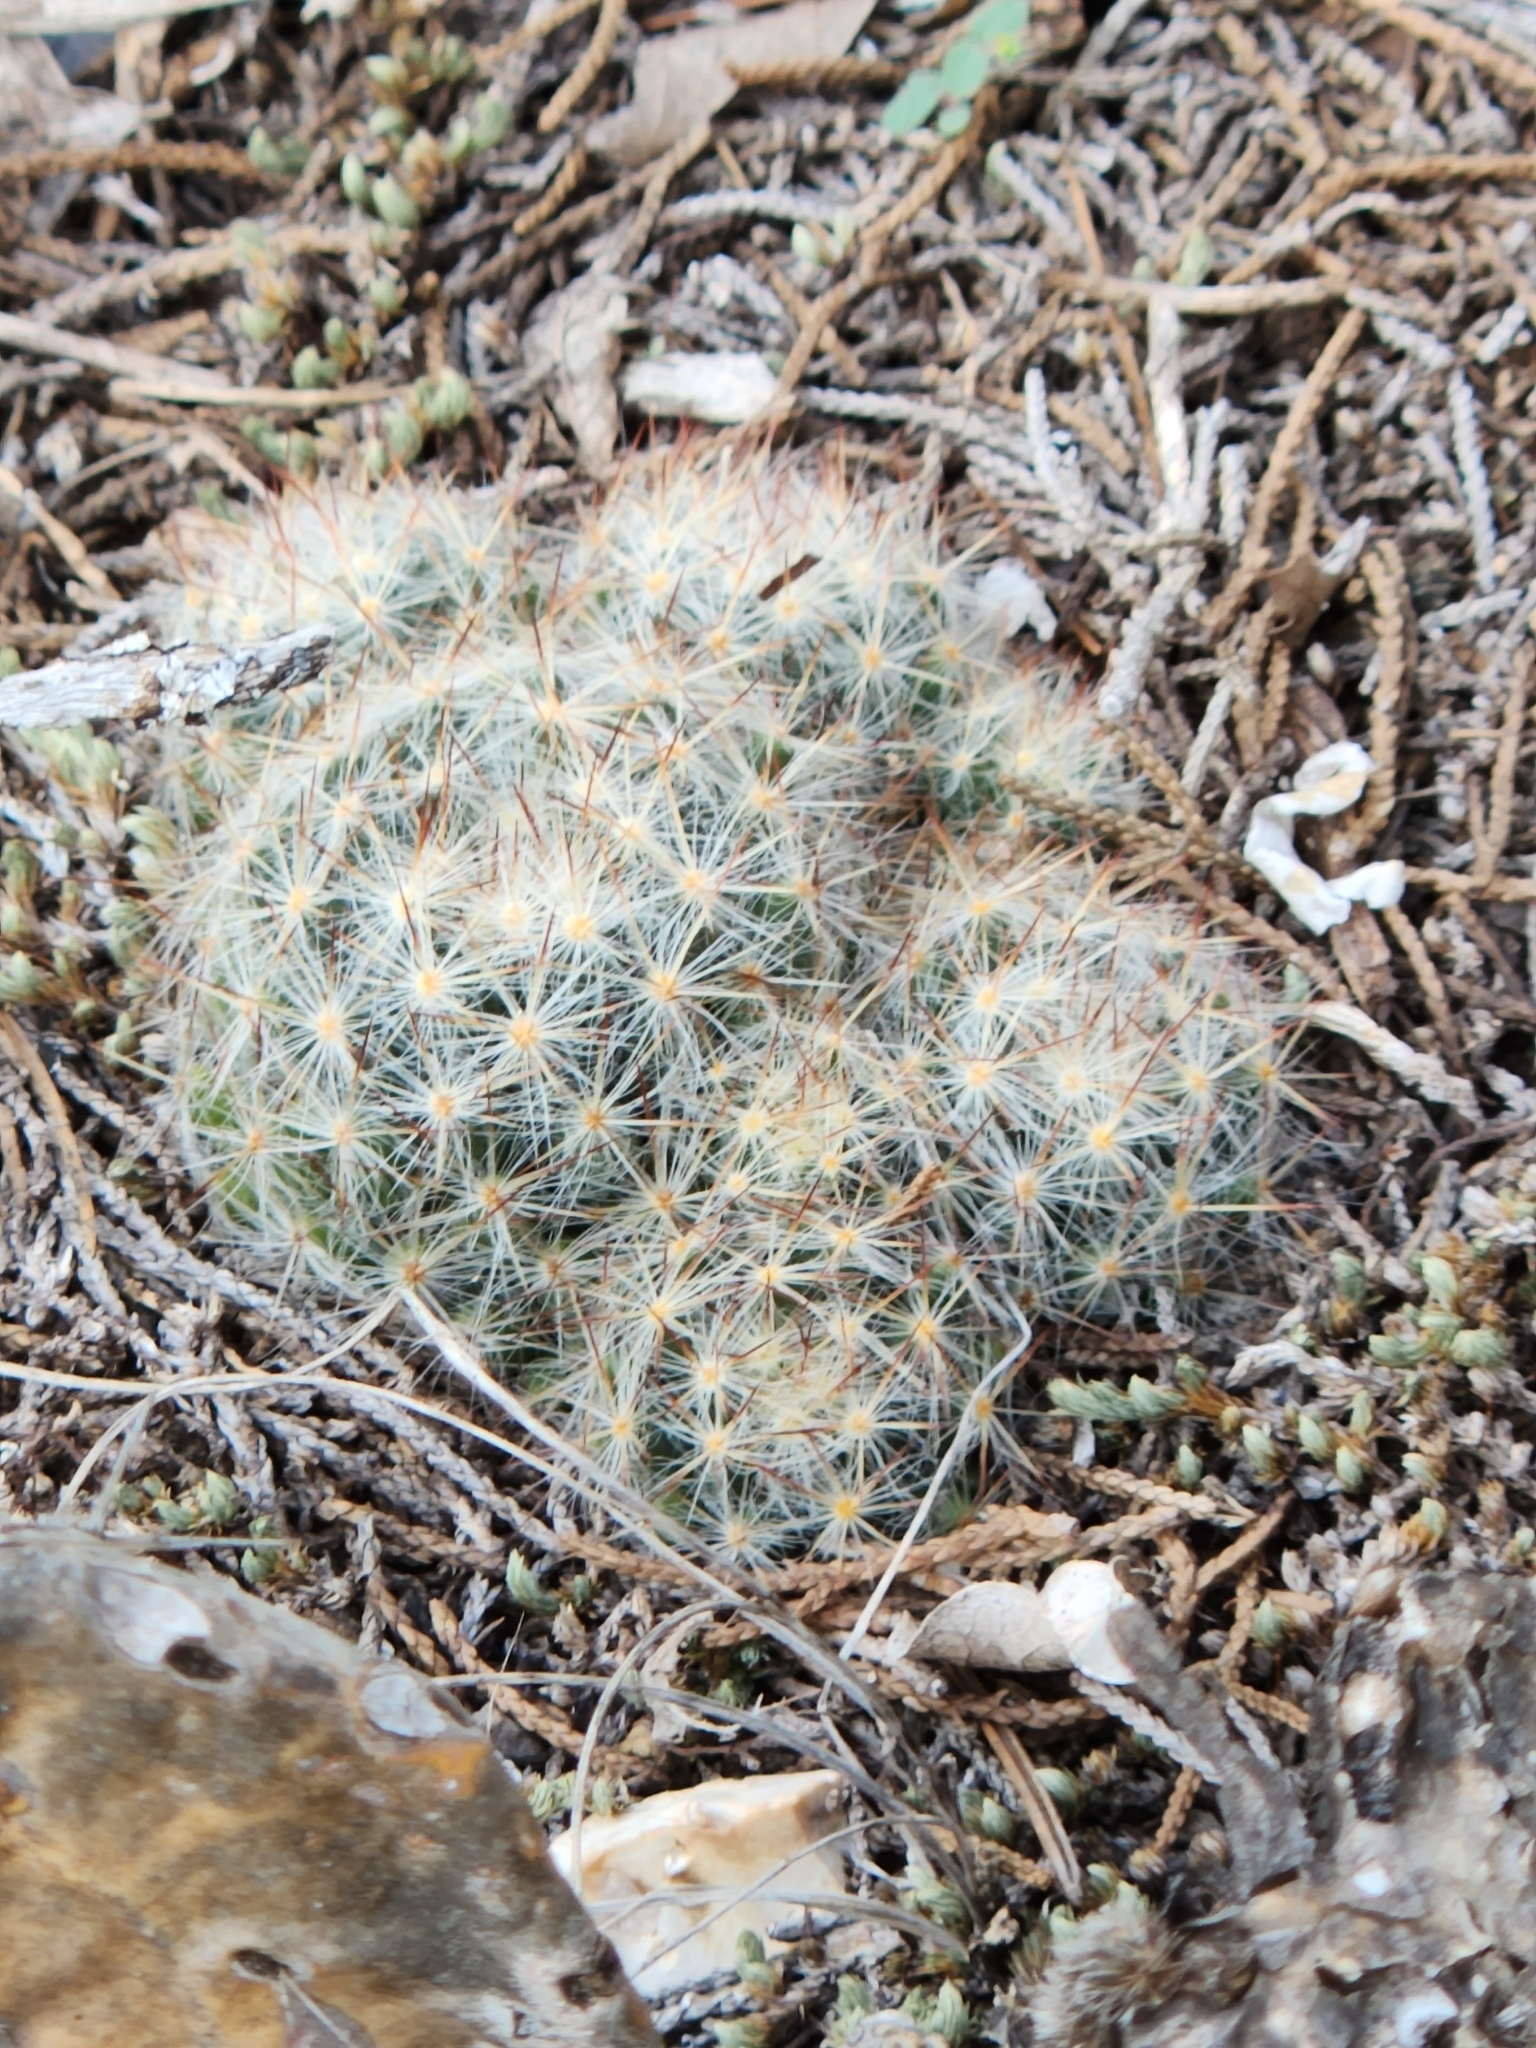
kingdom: Plantae
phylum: Tracheophyta
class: Magnoliopsida
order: Caryophyllales
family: Cactaceae
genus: Mammillaria
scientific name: Mammillaria prolifera
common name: Texas nipple cactus
